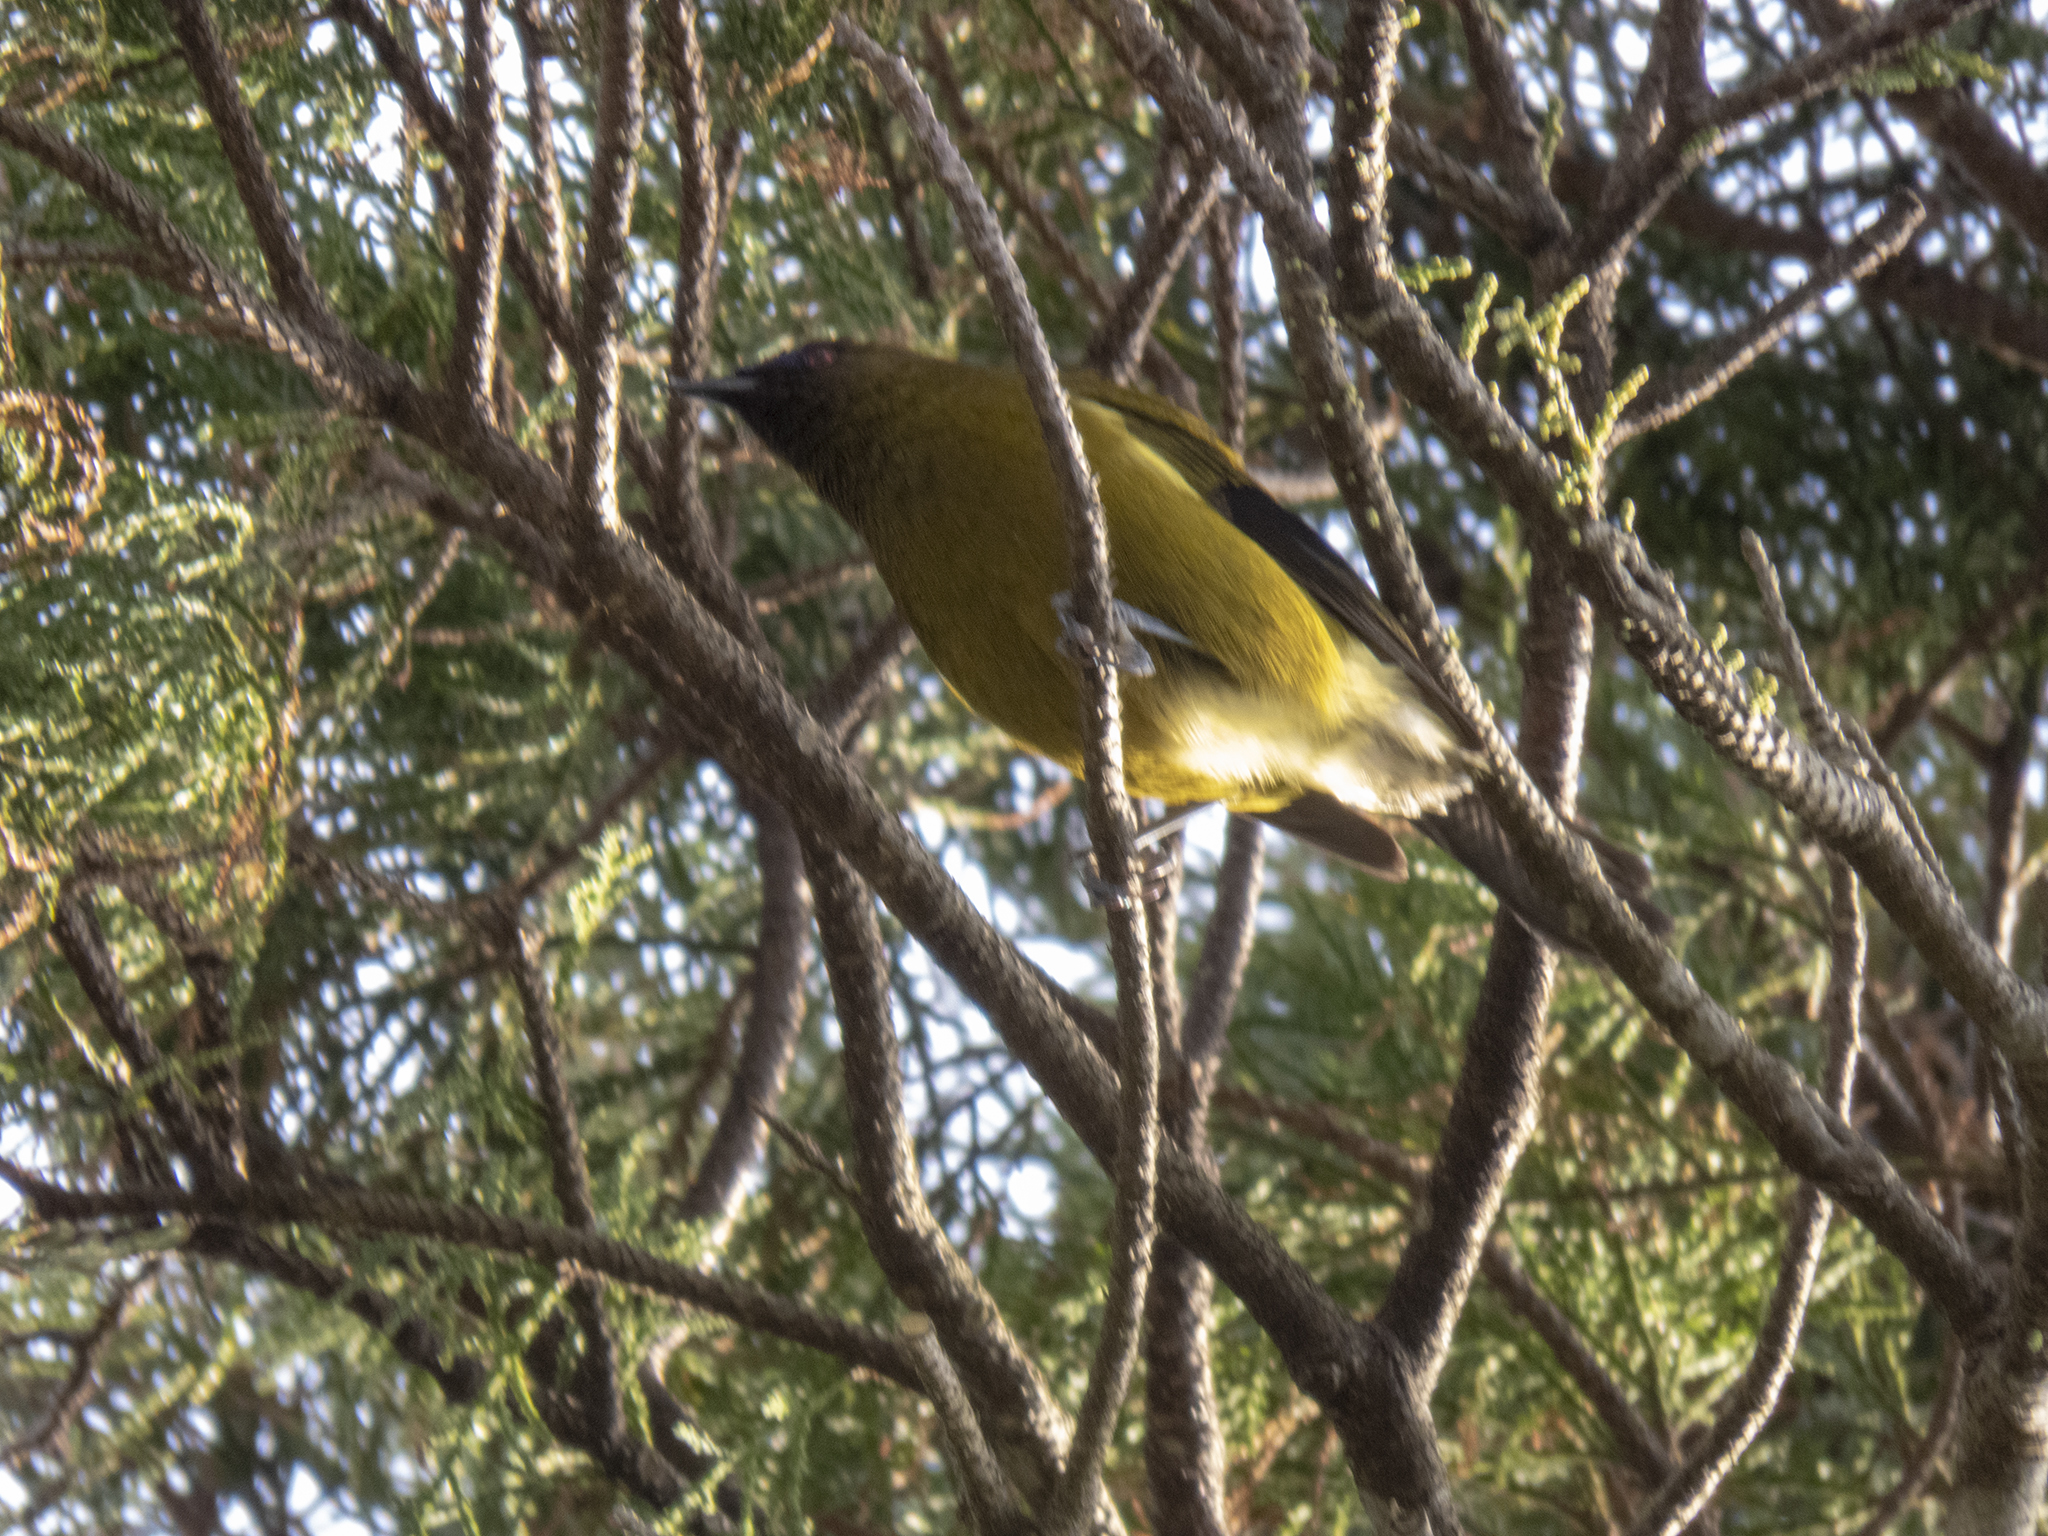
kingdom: Animalia
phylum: Chordata
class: Aves
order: Passeriformes
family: Meliphagidae
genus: Anthornis
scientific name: Anthornis melanura
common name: New zealand bellbird
